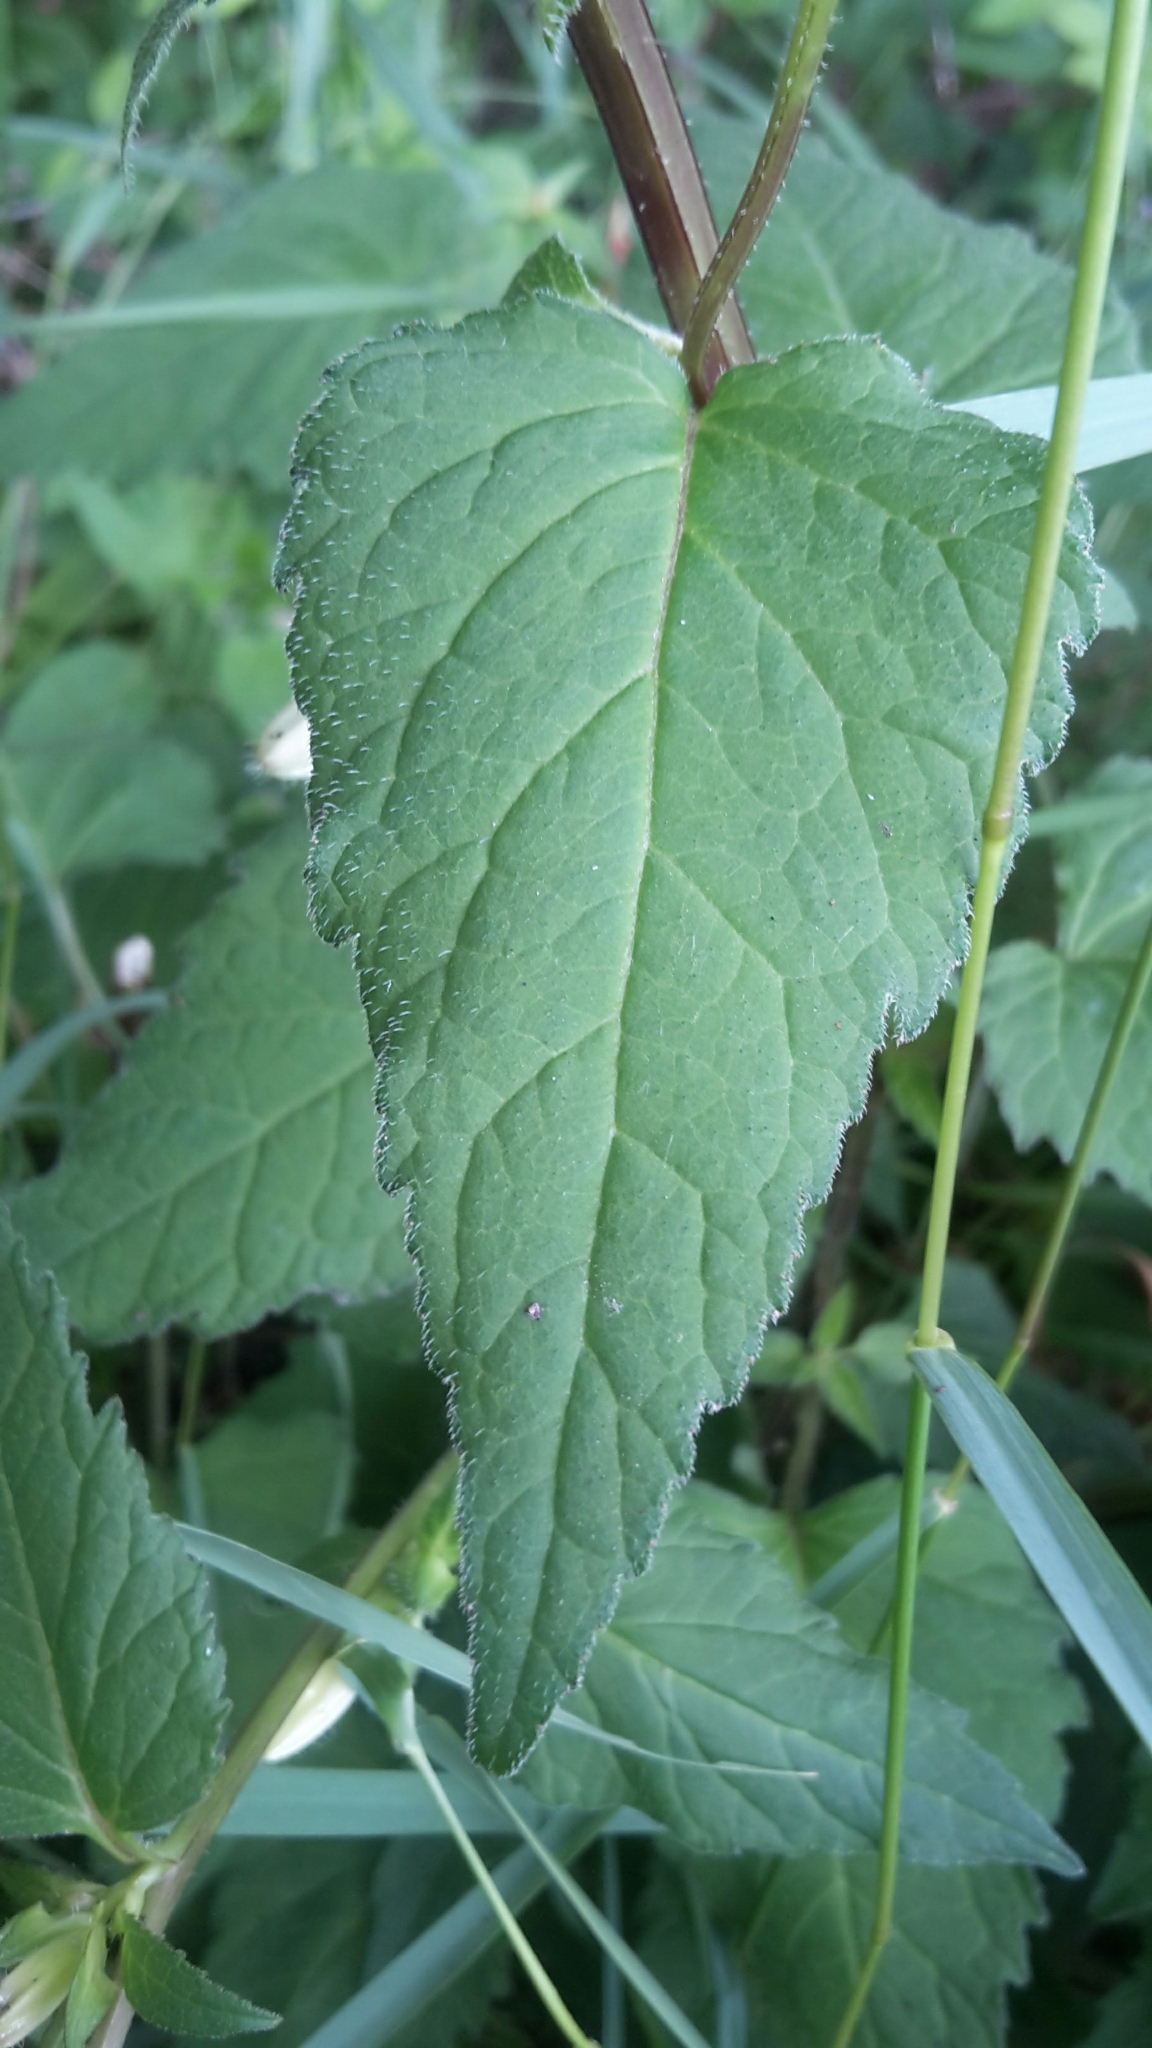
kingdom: Plantae
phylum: Tracheophyta
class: Magnoliopsida
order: Asterales
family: Campanulaceae
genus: Campanula
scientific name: Campanula trachelium
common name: Nettle-leaved bellflower
